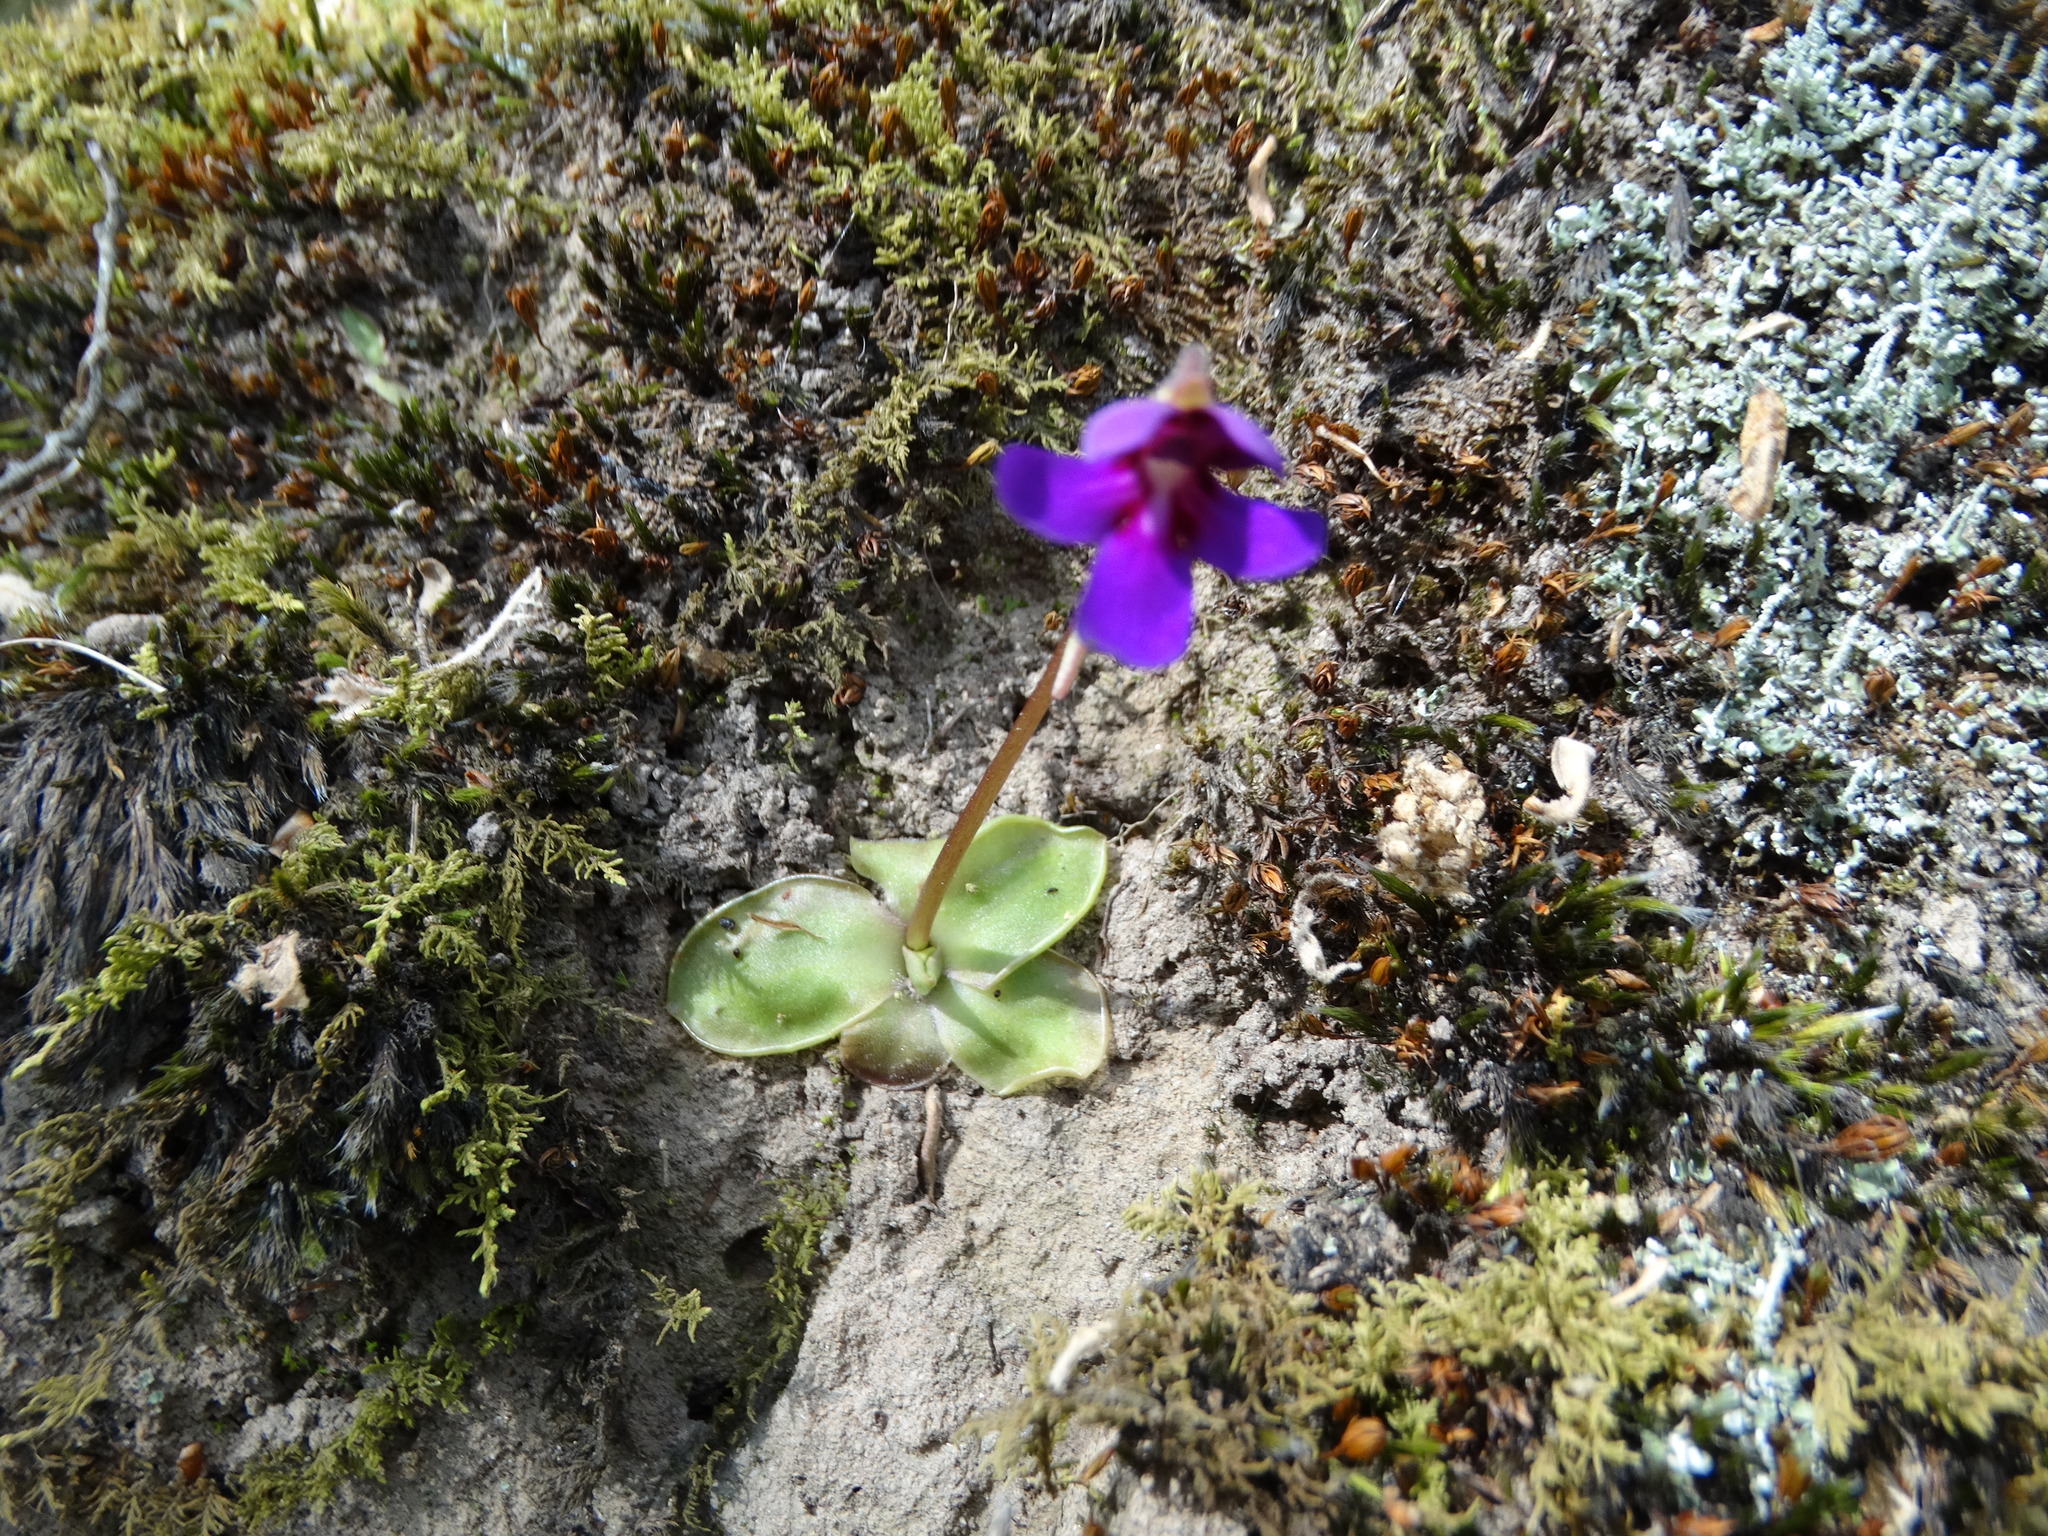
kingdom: Plantae
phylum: Tracheophyta
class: Magnoliopsida
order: Lamiales
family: Lentibulariaceae
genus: Pinguicula
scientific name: Pinguicula moranensis
